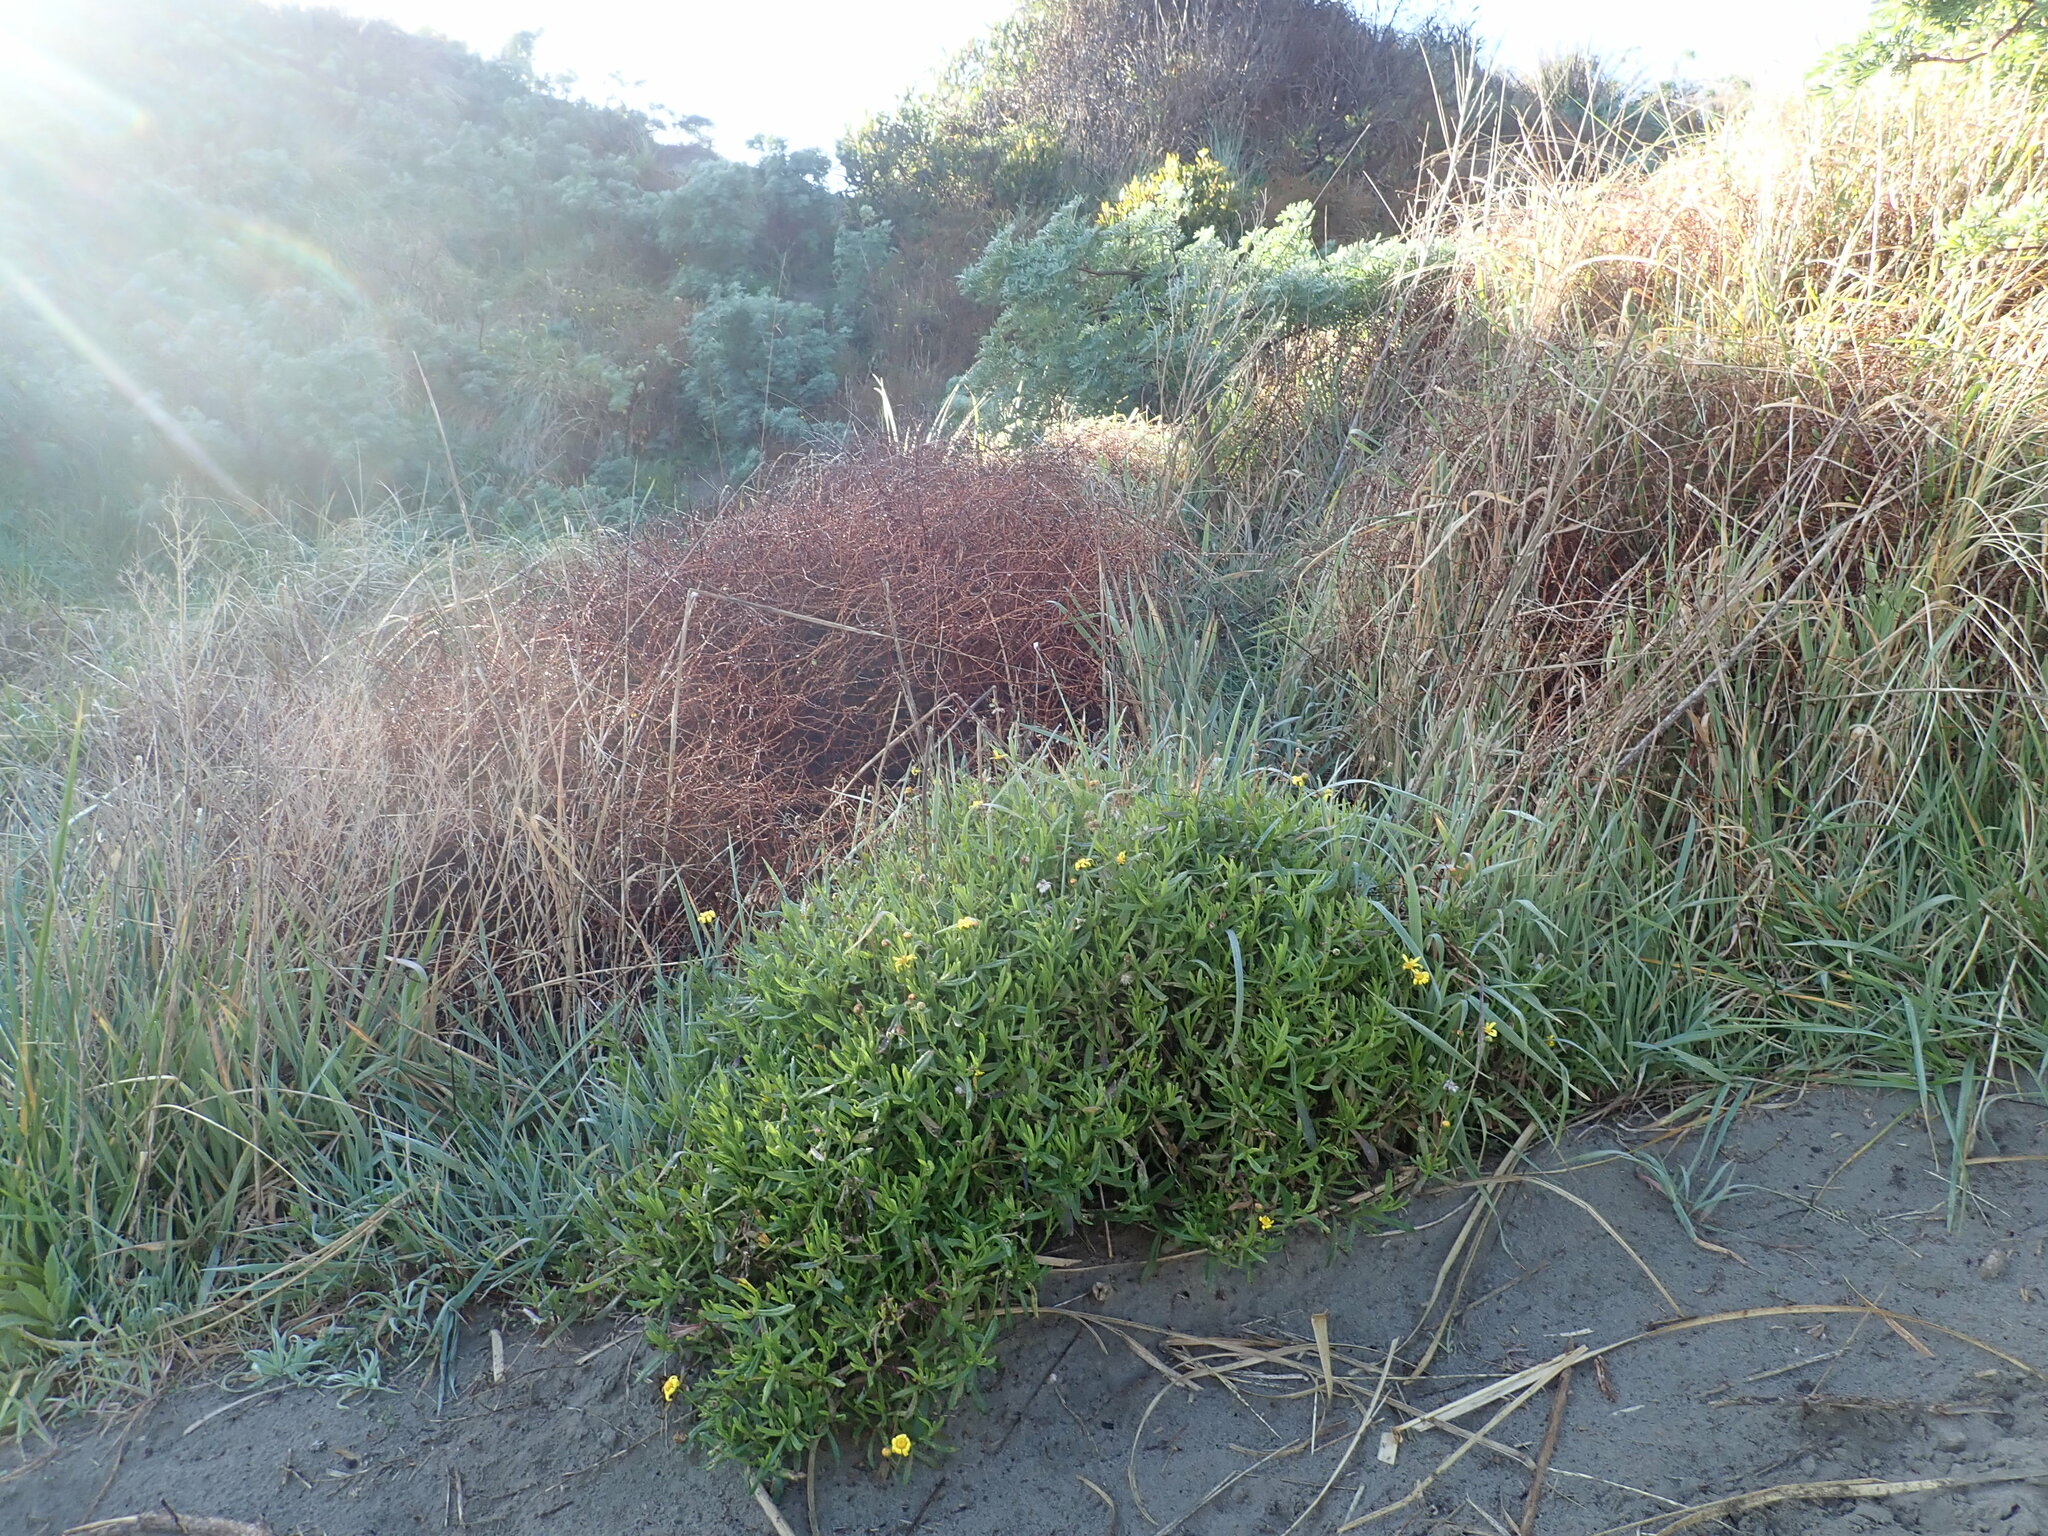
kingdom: Plantae
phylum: Tracheophyta
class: Magnoliopsida
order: Asterales
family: Asteraceae
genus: Senecio
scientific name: Senecio skirrhodon
